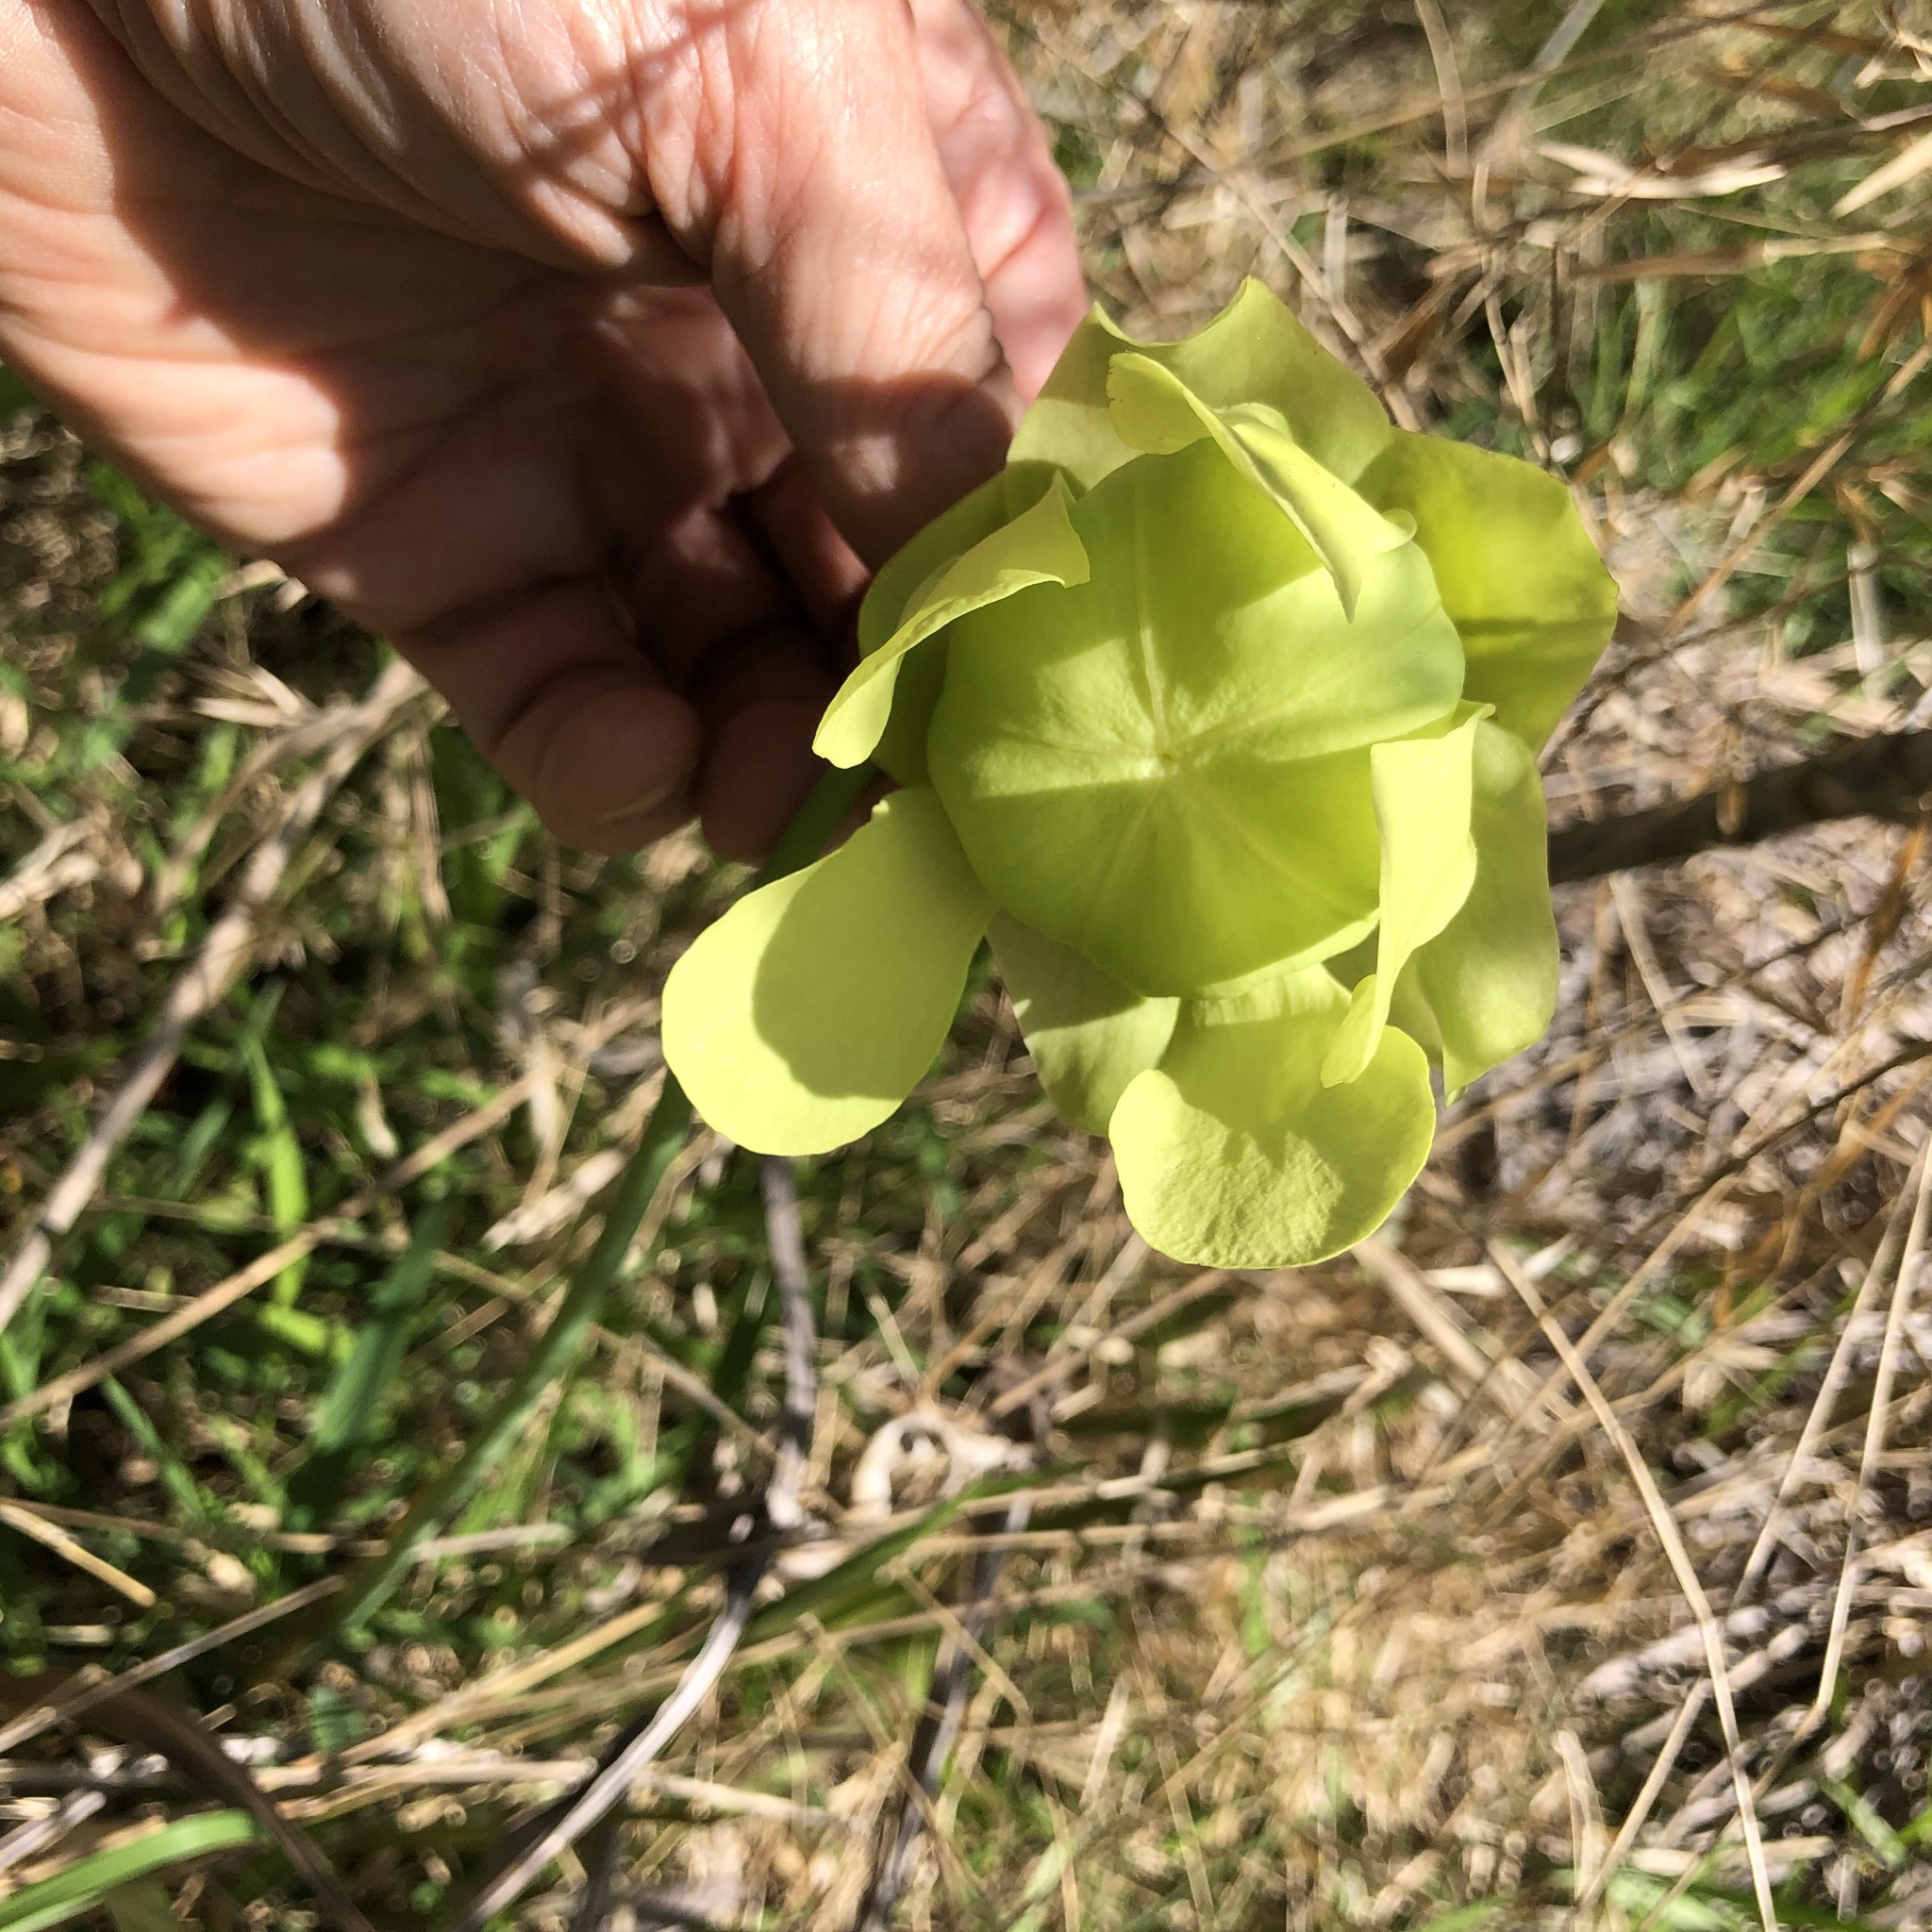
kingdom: Plantae
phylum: Tracheophyta
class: Magnoliopsida
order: Ericales
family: Sarraceniaceae
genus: Sarracenia
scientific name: Sarracenia alata
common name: Yellow trumpets
